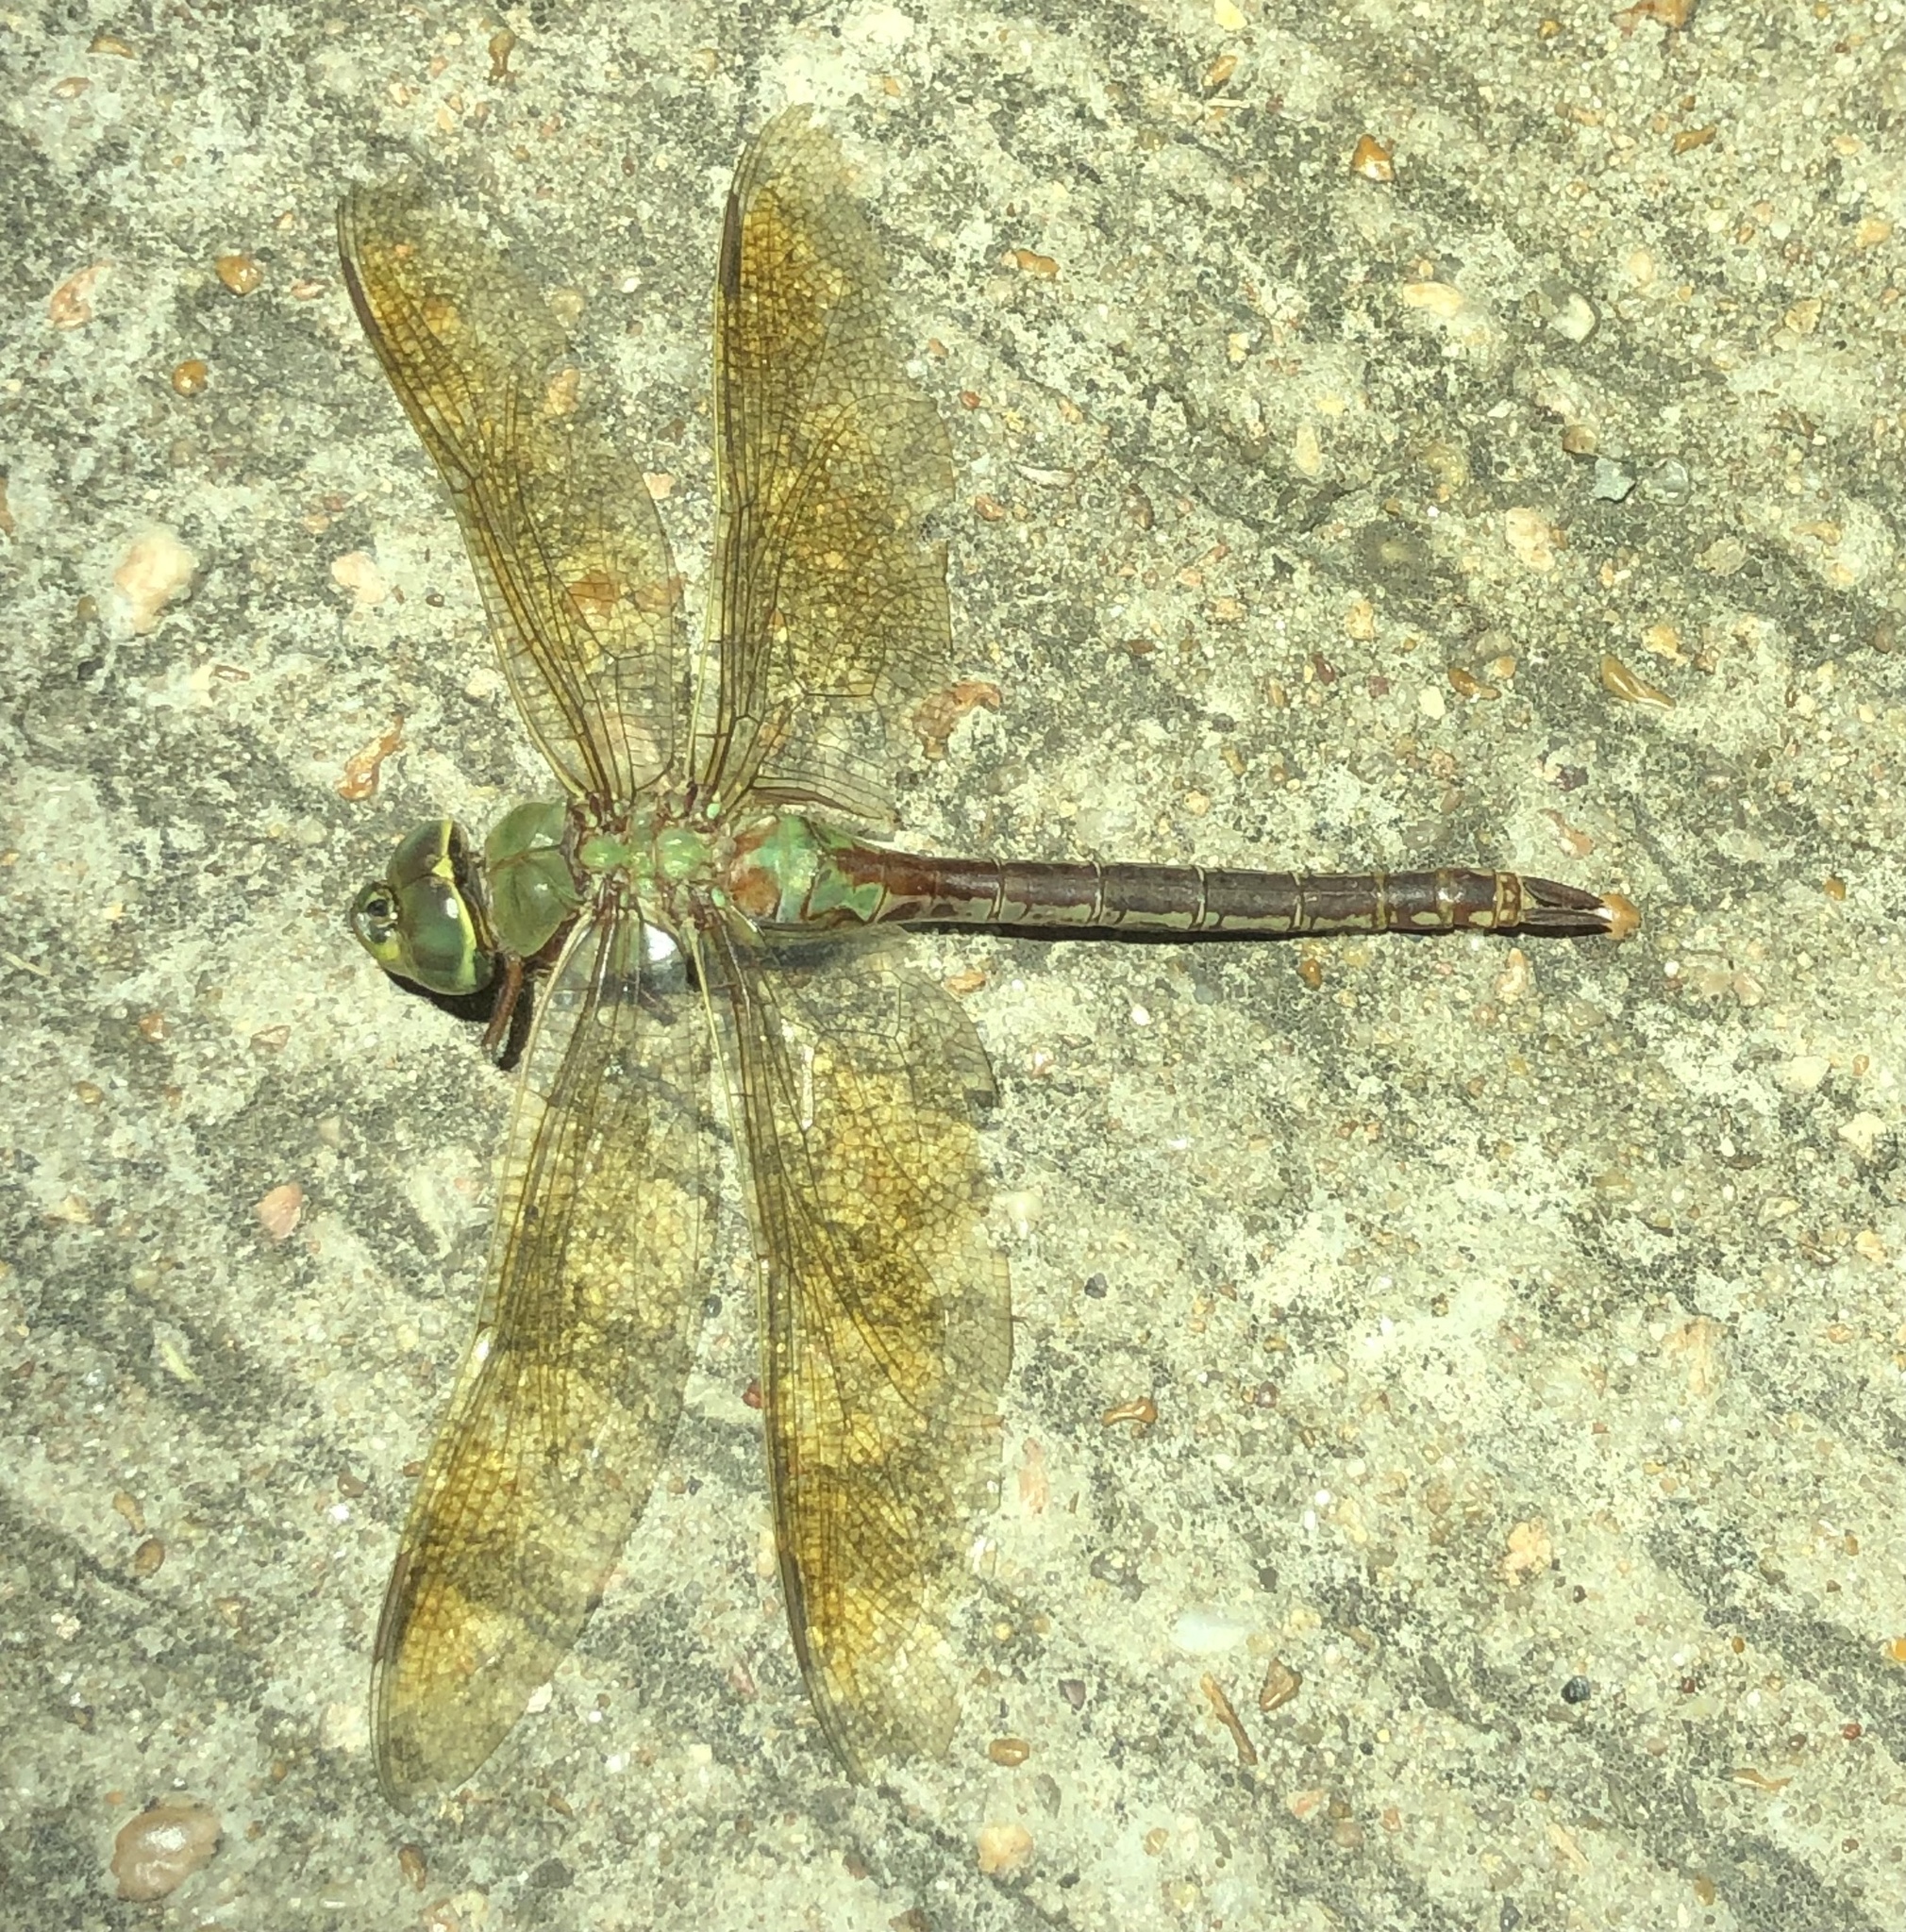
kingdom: Animalia
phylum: Arthropoda
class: Insecta
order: Odonata
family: Aeshnidae
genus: Anax
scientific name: Anax junius
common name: Common green darner
